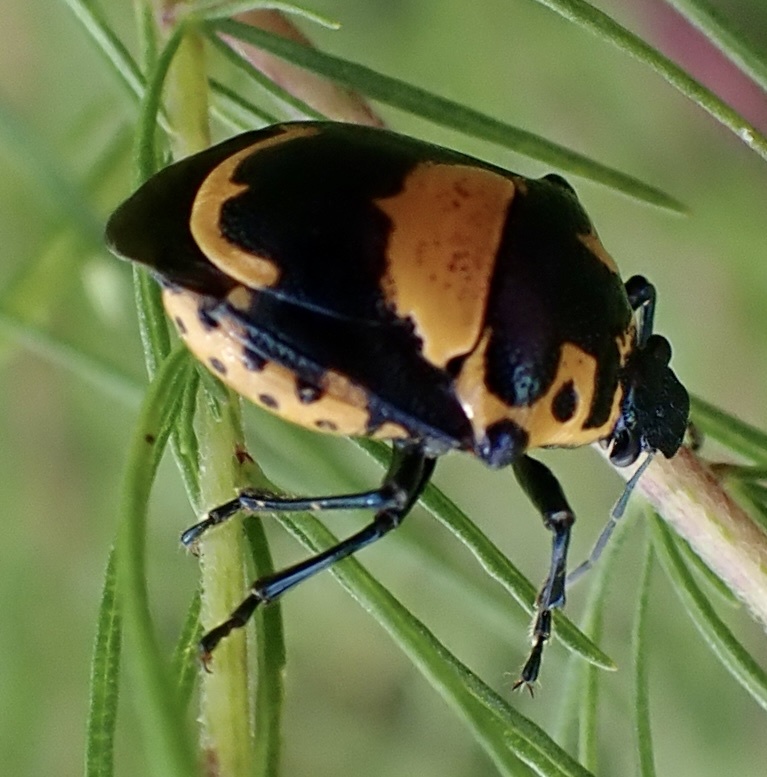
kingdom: Animalia
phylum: Arthropoda
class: Insecta
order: Hemiptera
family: Pentatomidae
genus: Stiretrus
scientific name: Stiretrus anchorago
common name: Anchor stink bug
